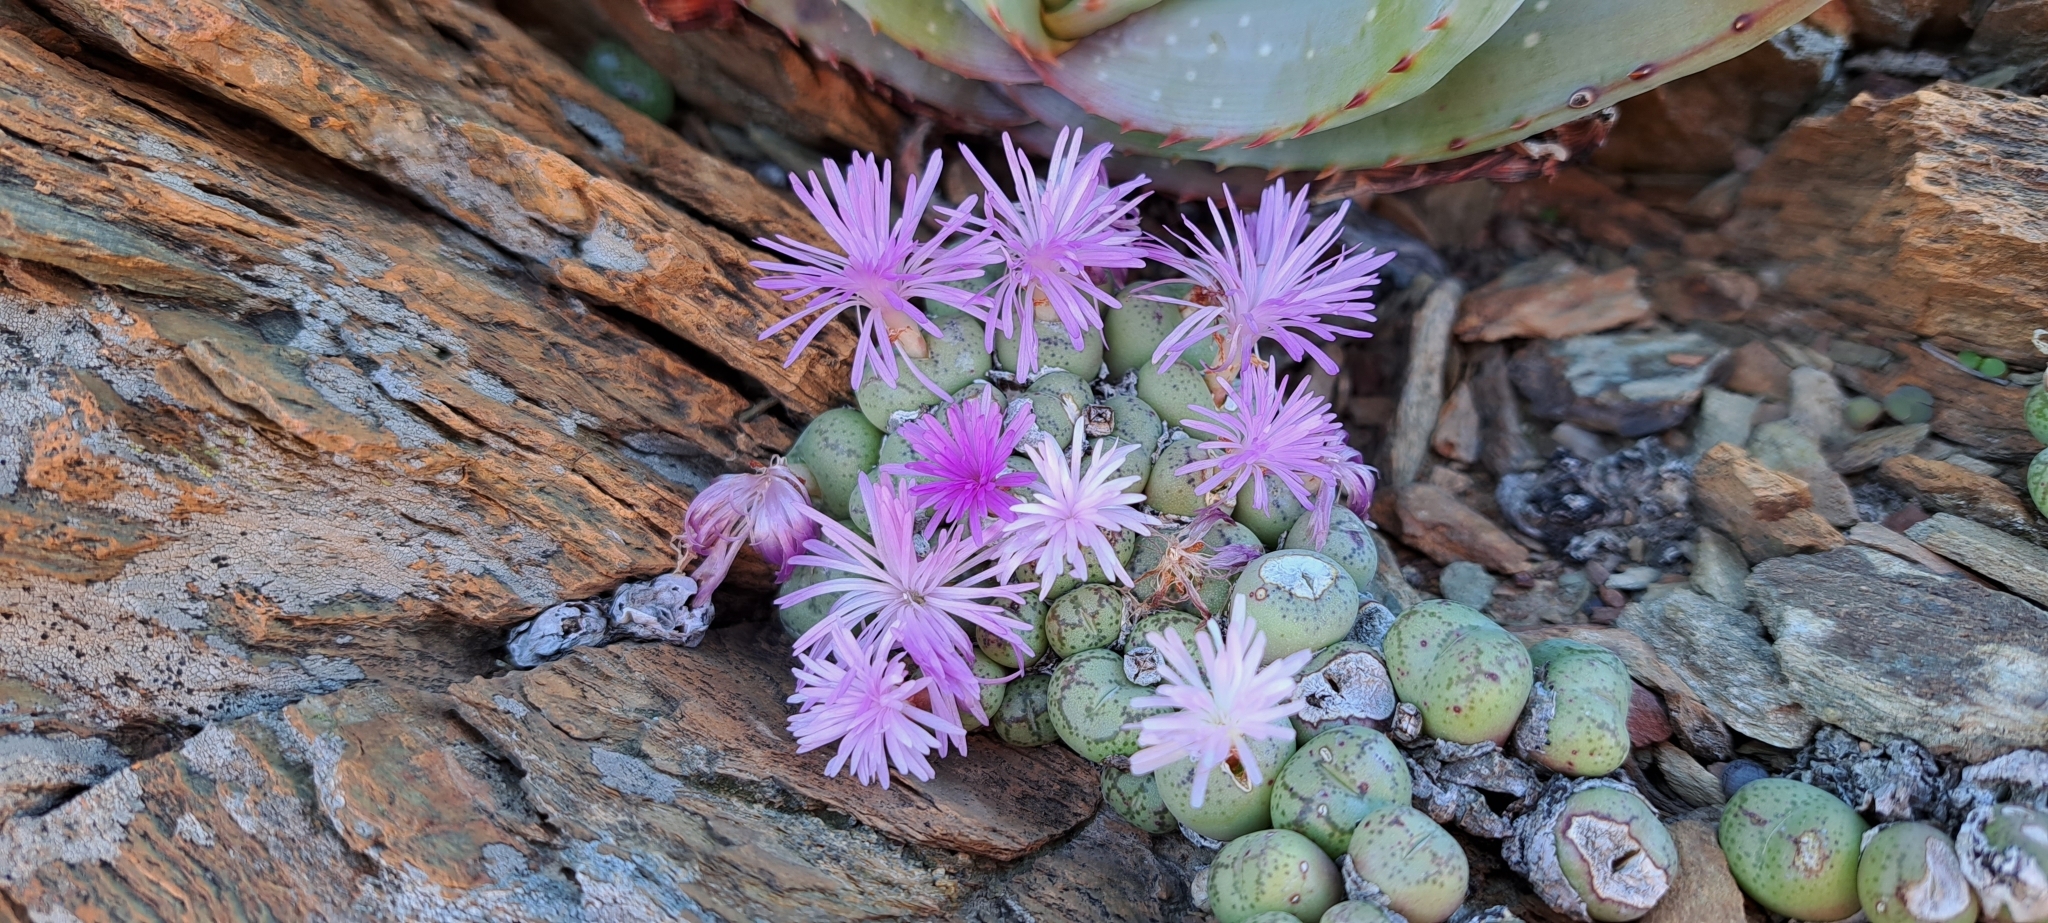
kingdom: Plantae
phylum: Tracheophyta
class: Magnoliopsida
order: Caryophyllales
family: Aizoaceae
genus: Conophytum
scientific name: Conophytum ficiforme
